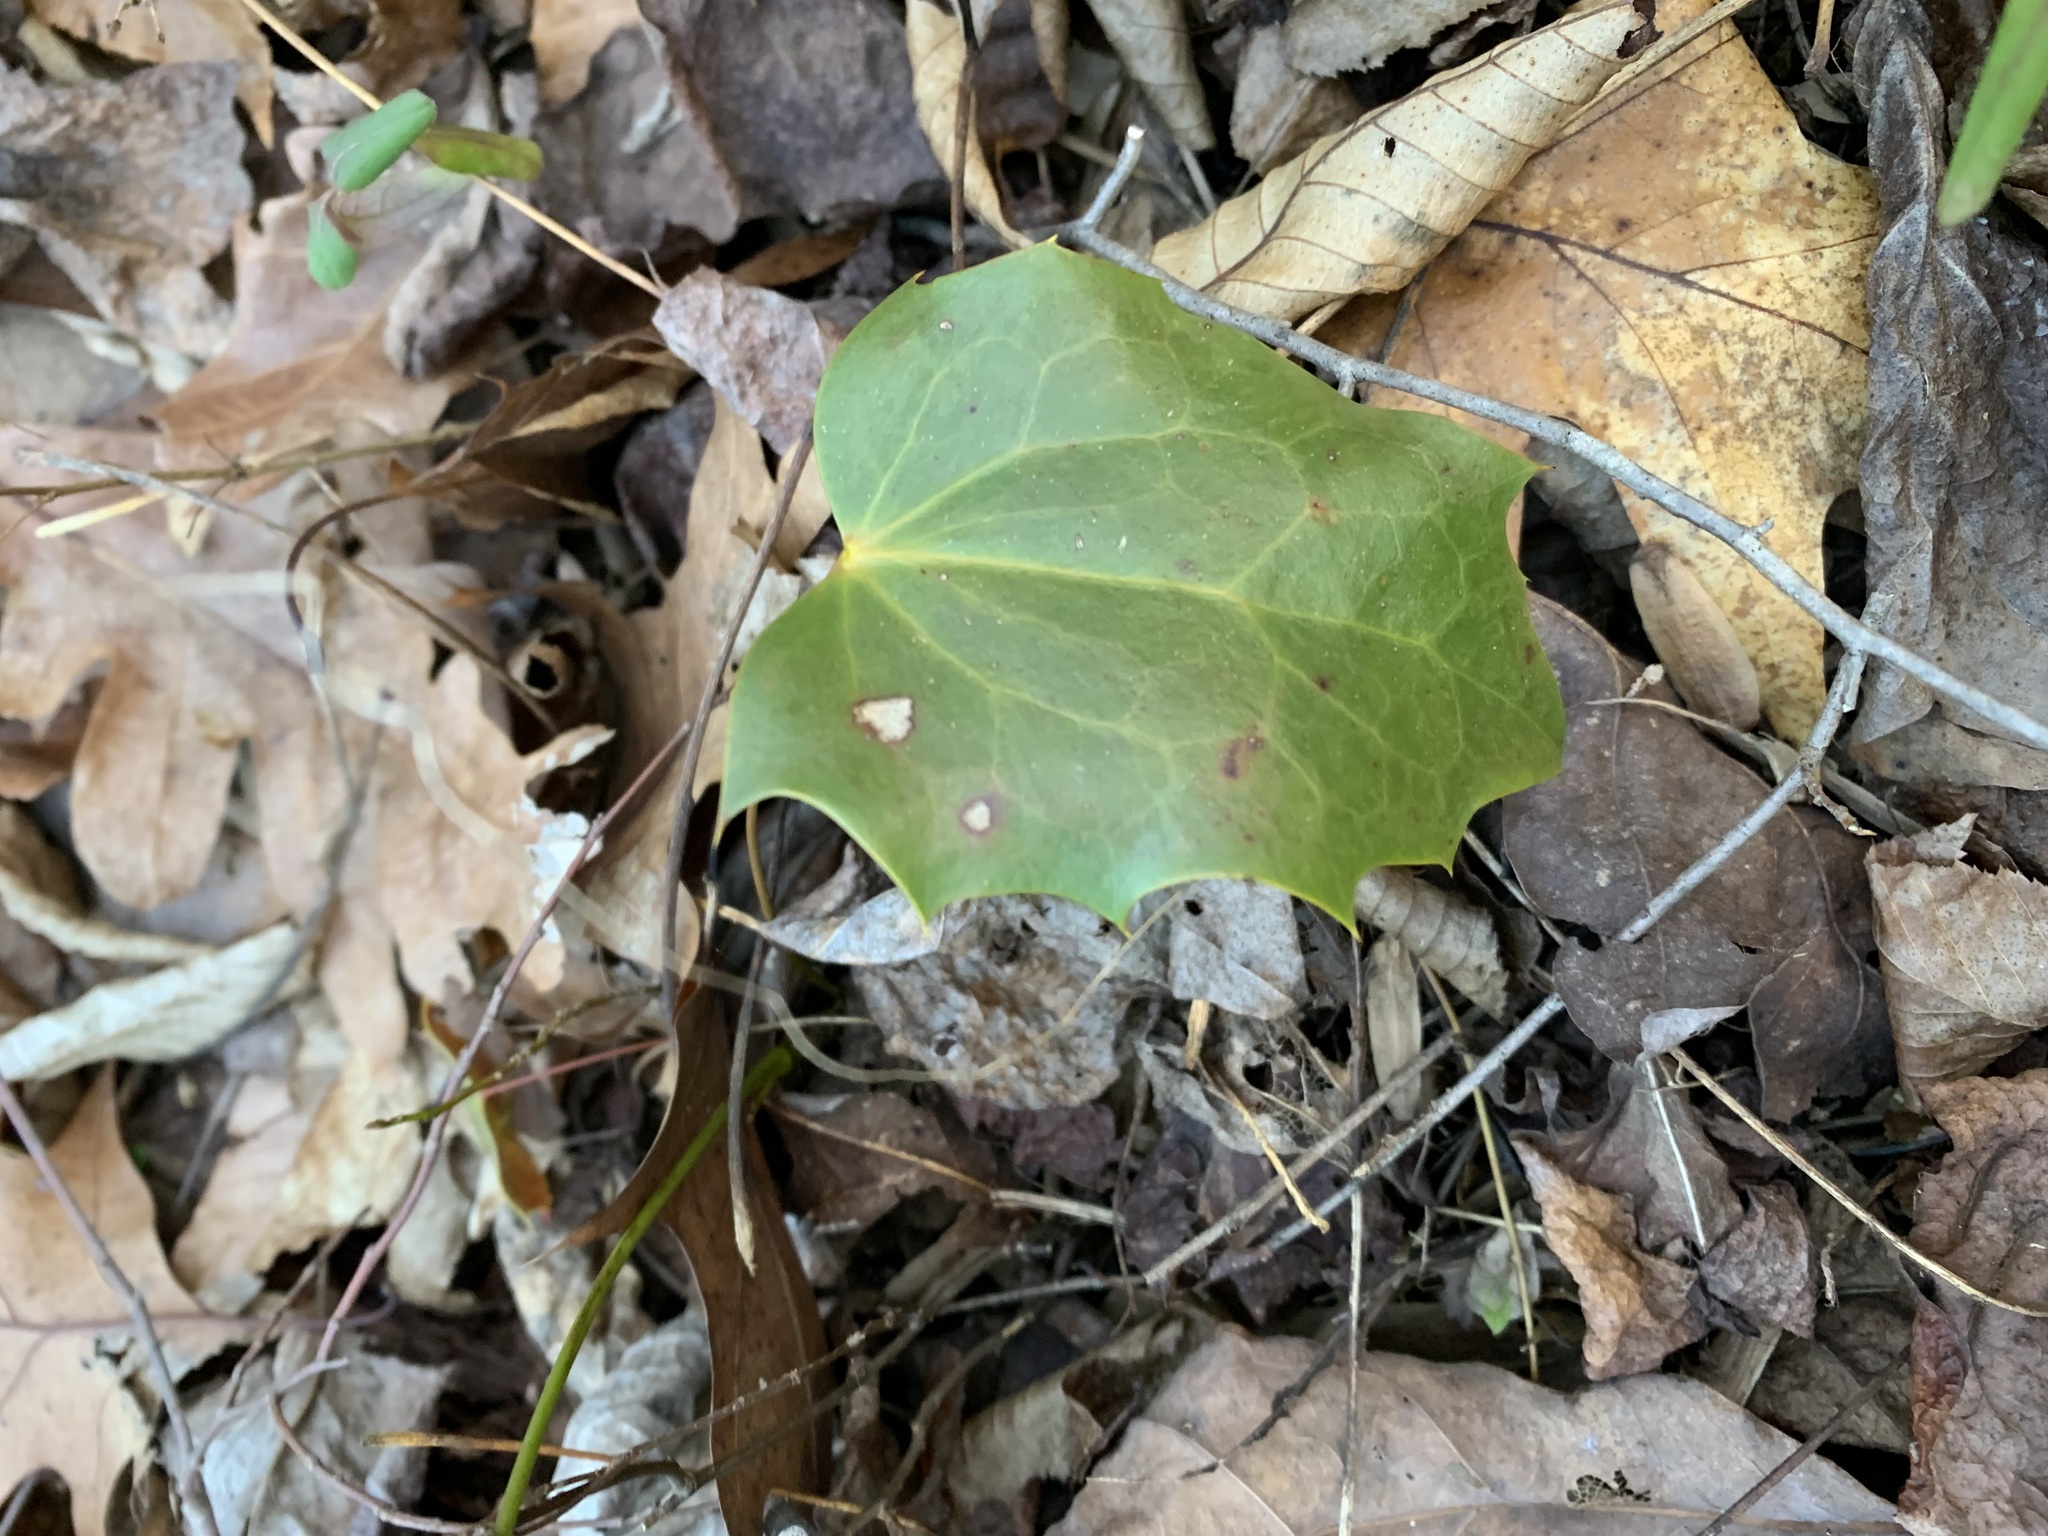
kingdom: Plantae
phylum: Tracheophyta
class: Magnoliopsida
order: Ranunculales
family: Berberidaceae
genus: Mahonia
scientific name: Mahonia bealei
